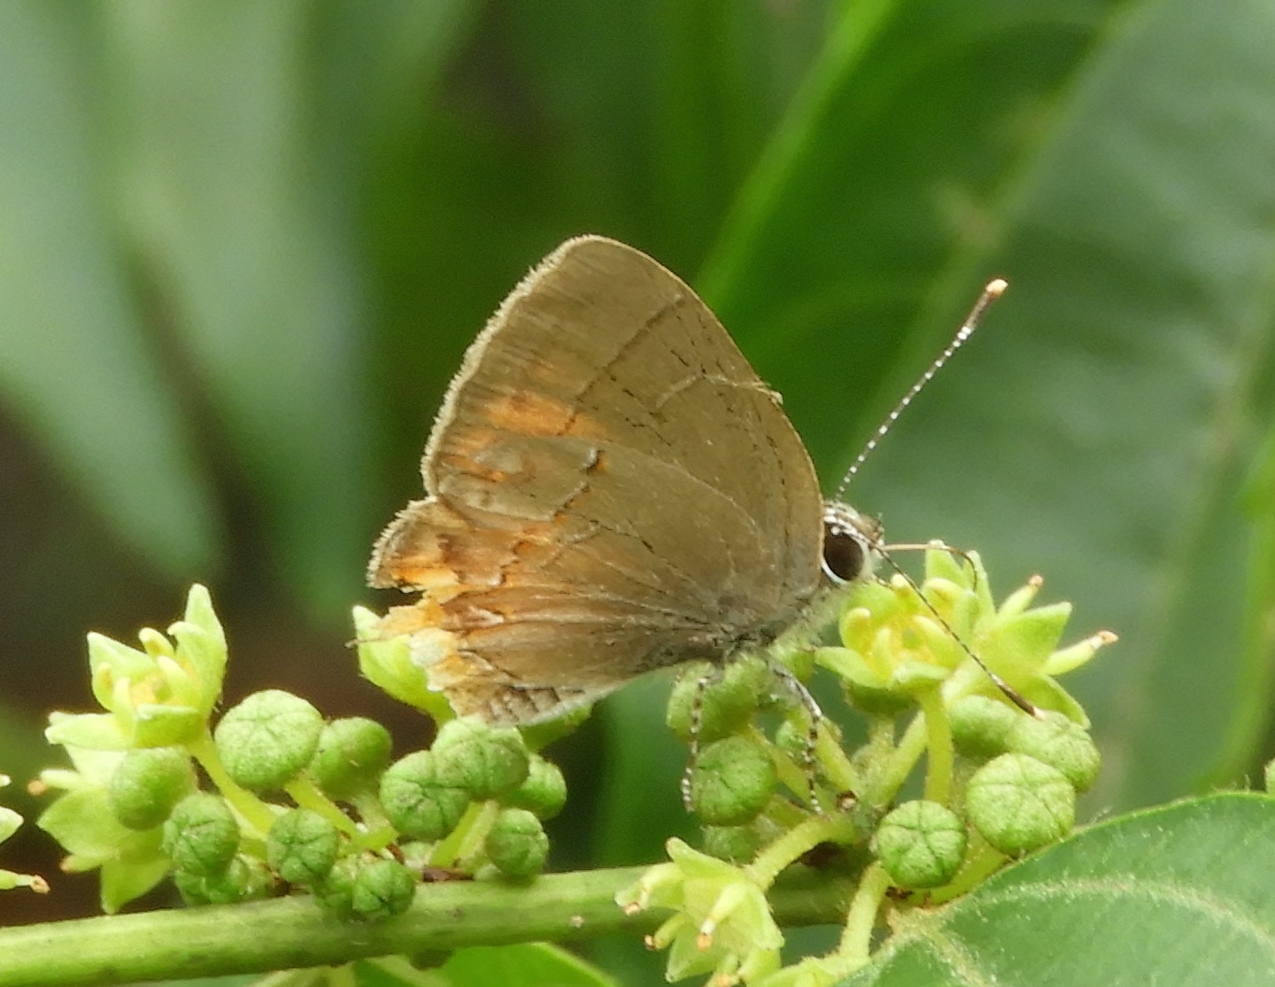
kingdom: Animalia
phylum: Arthropoda
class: Insecta
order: Lepidoptera
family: Lycaenidae
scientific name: Lycaenidae
